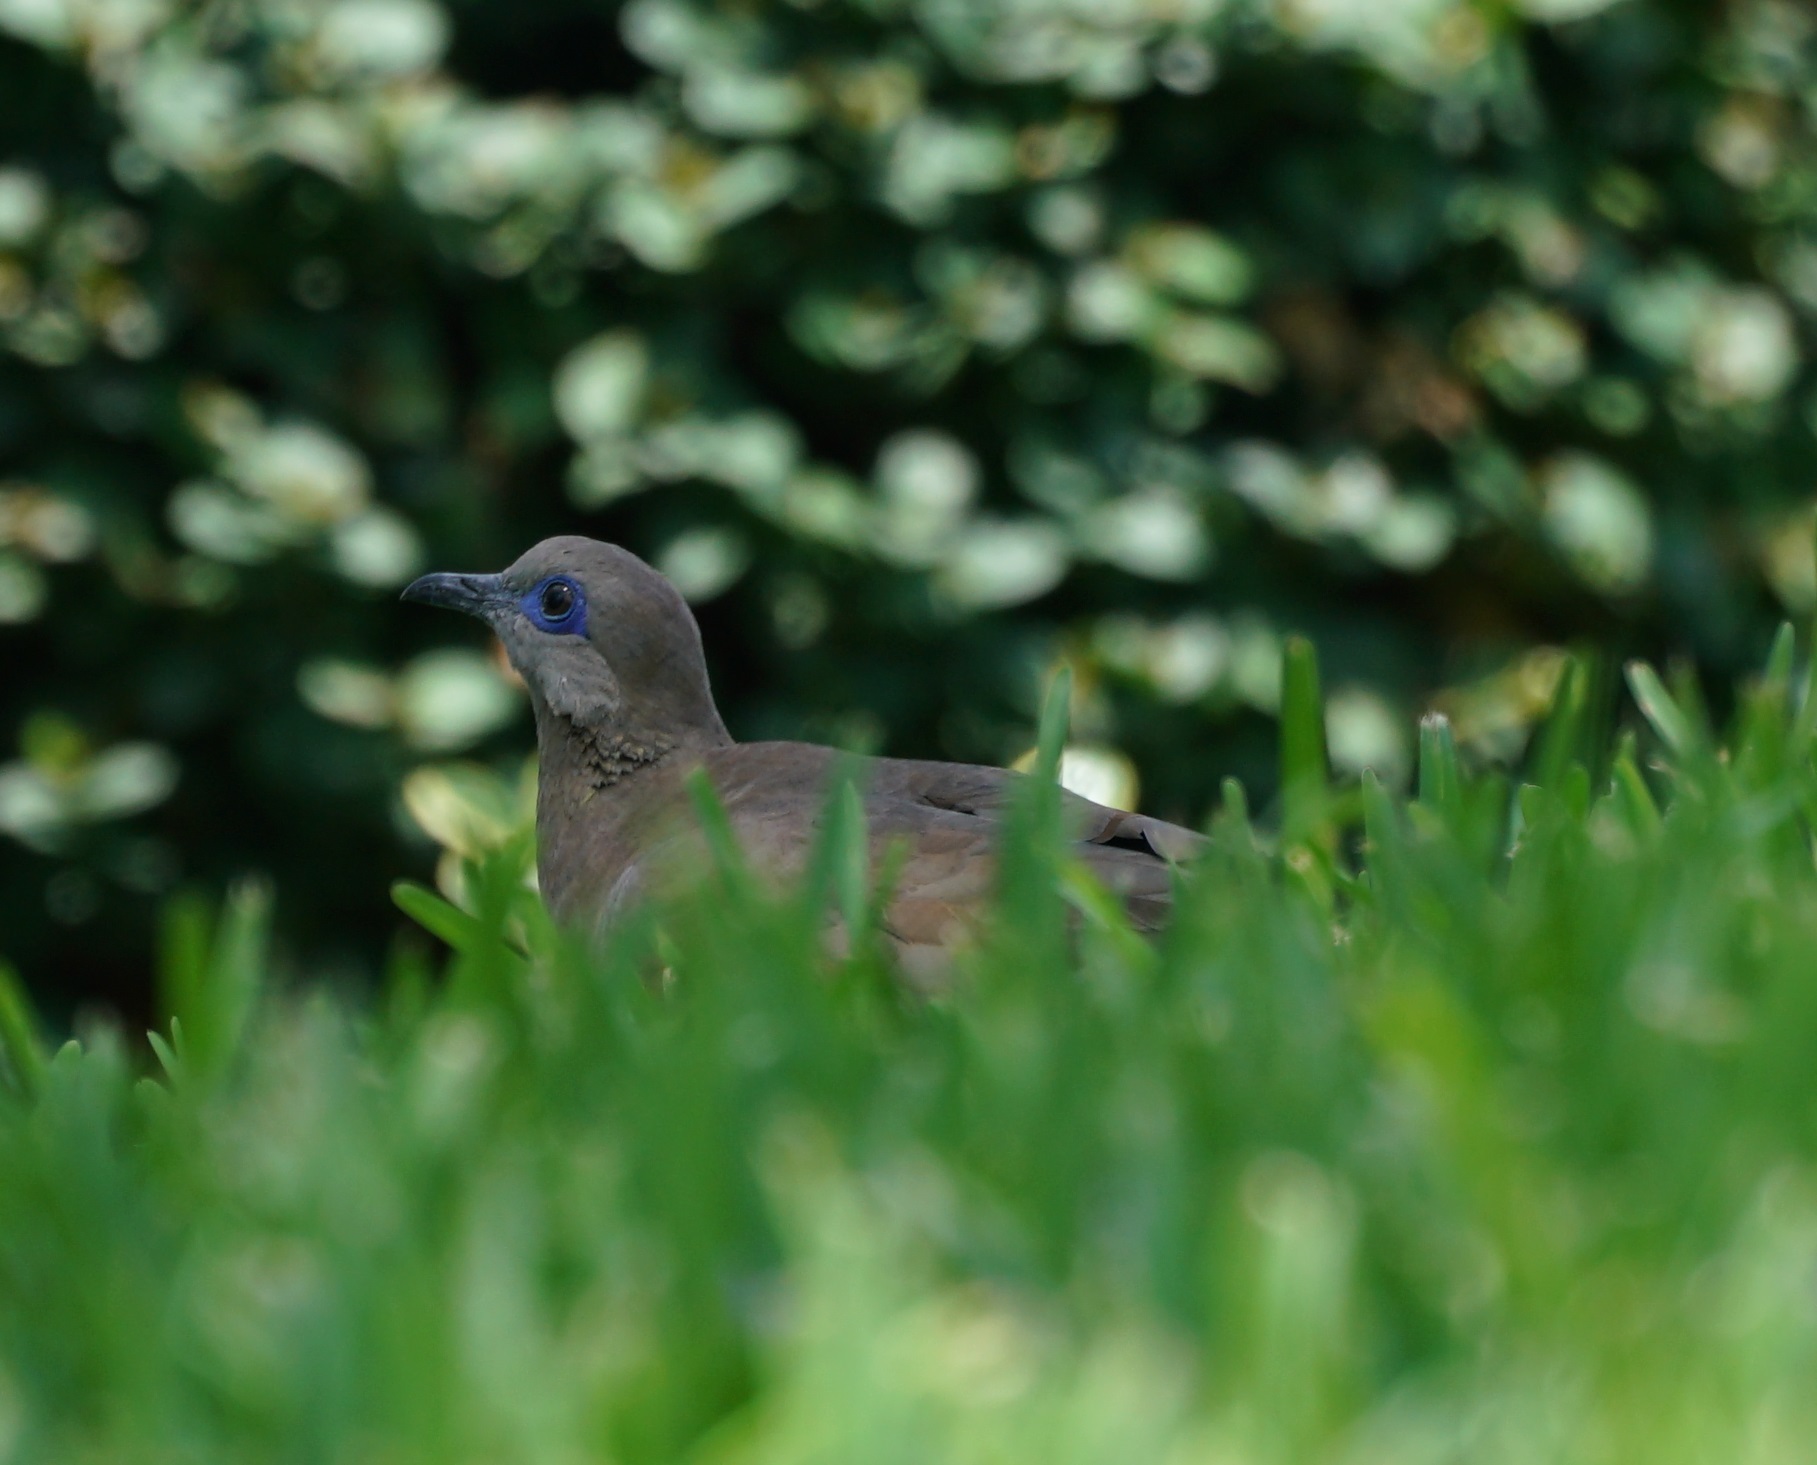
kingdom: Animalia
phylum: Chordata
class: Aves
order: Columbiformes
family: Columbidae
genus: Zenaida
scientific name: Zenaida meloda
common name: West peruvian dove
